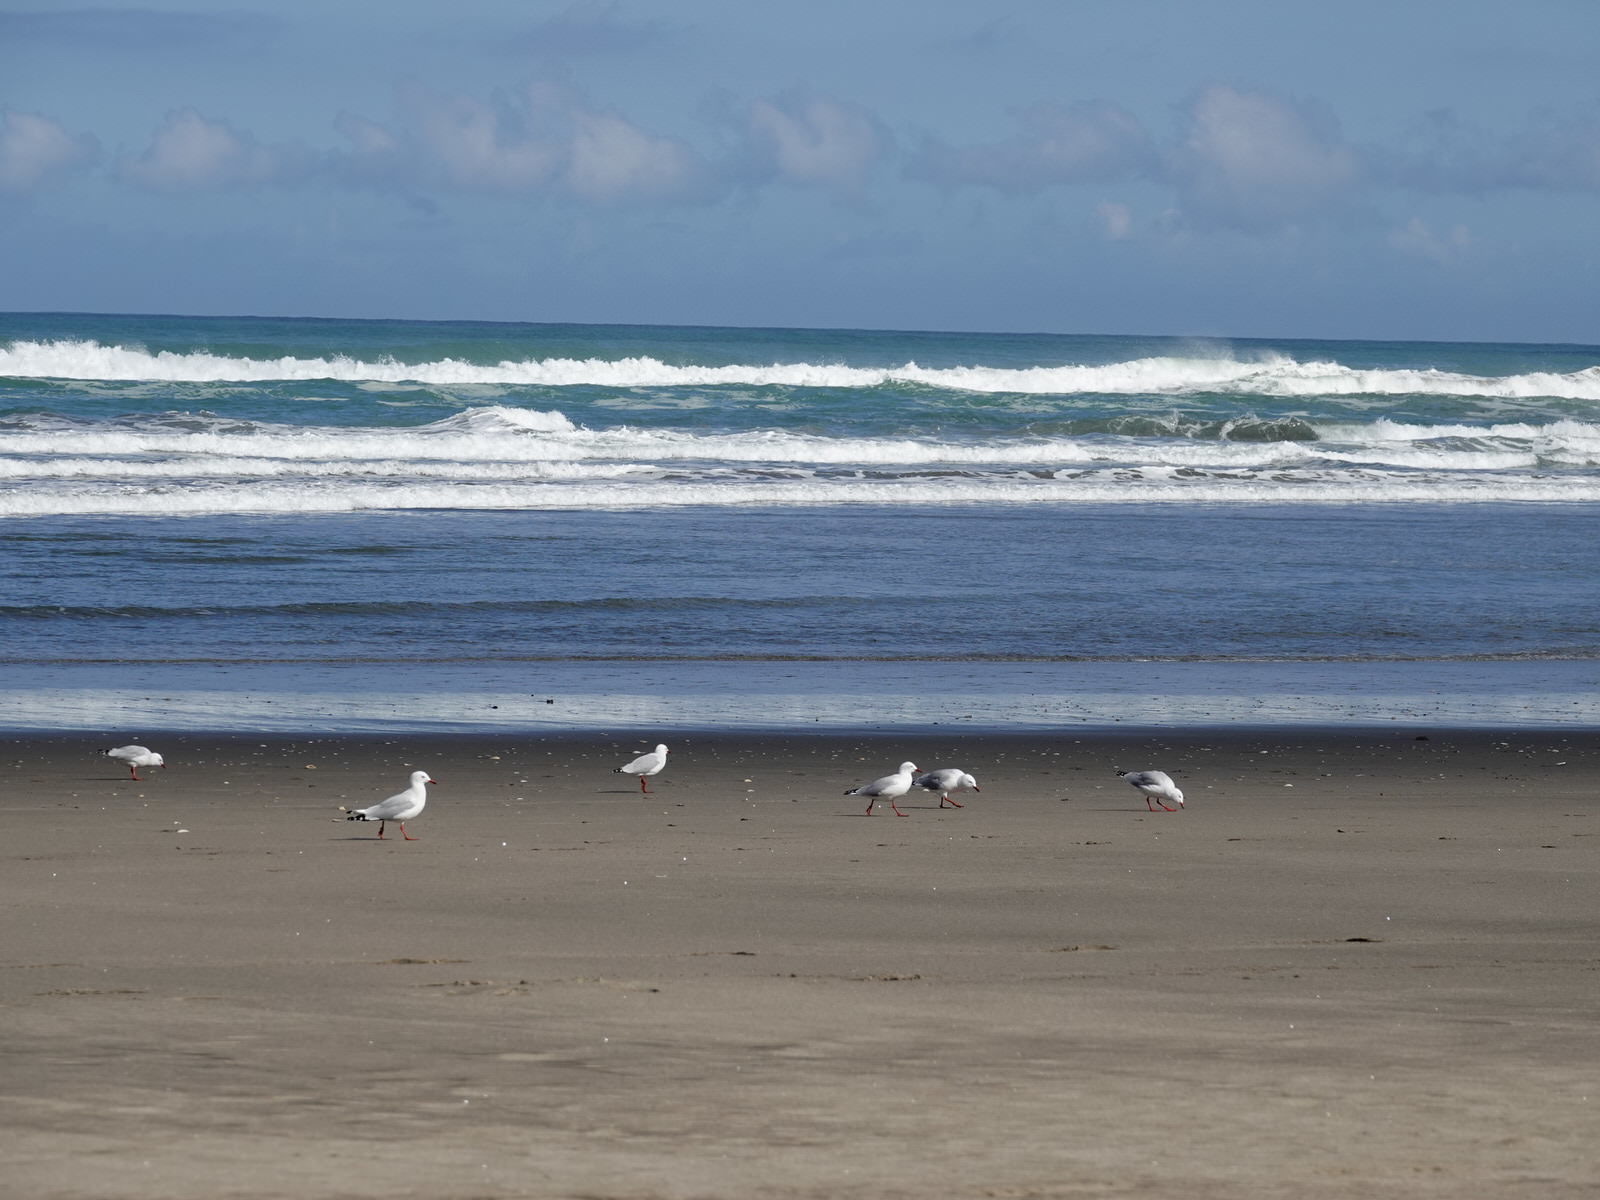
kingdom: Animalia
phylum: Chordata
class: Aves
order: Charadriiformes
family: Laridae
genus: Chroicocephalus
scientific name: Chroicocephalus novaehollandiae
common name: Silver gull
